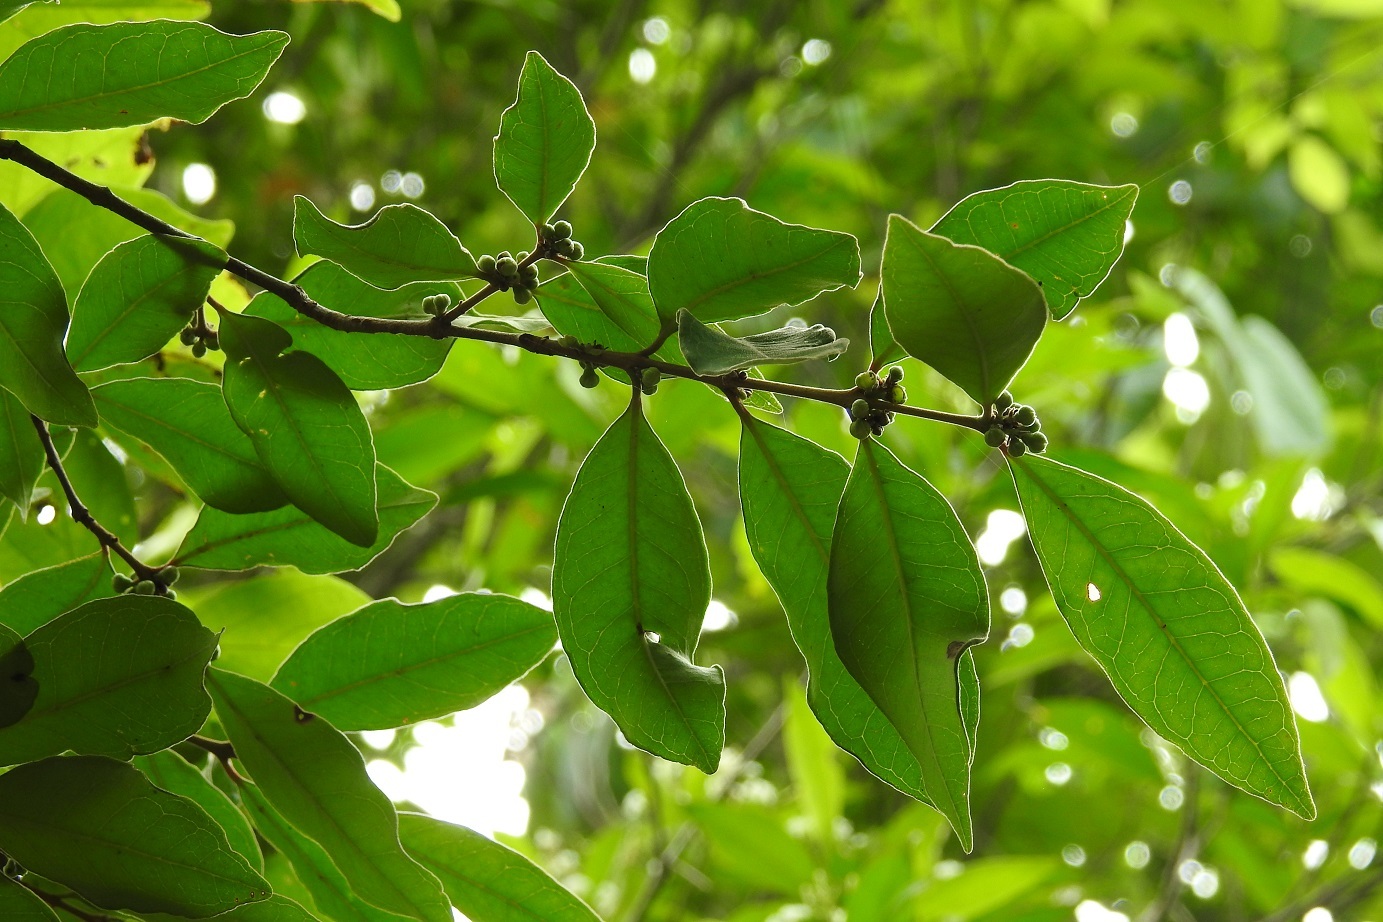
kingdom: Plantae
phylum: Tracheophyta
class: Magnoliopsida
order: Myrtales
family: Myrtaceae
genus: Eugenia
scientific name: Eugenia capuli
